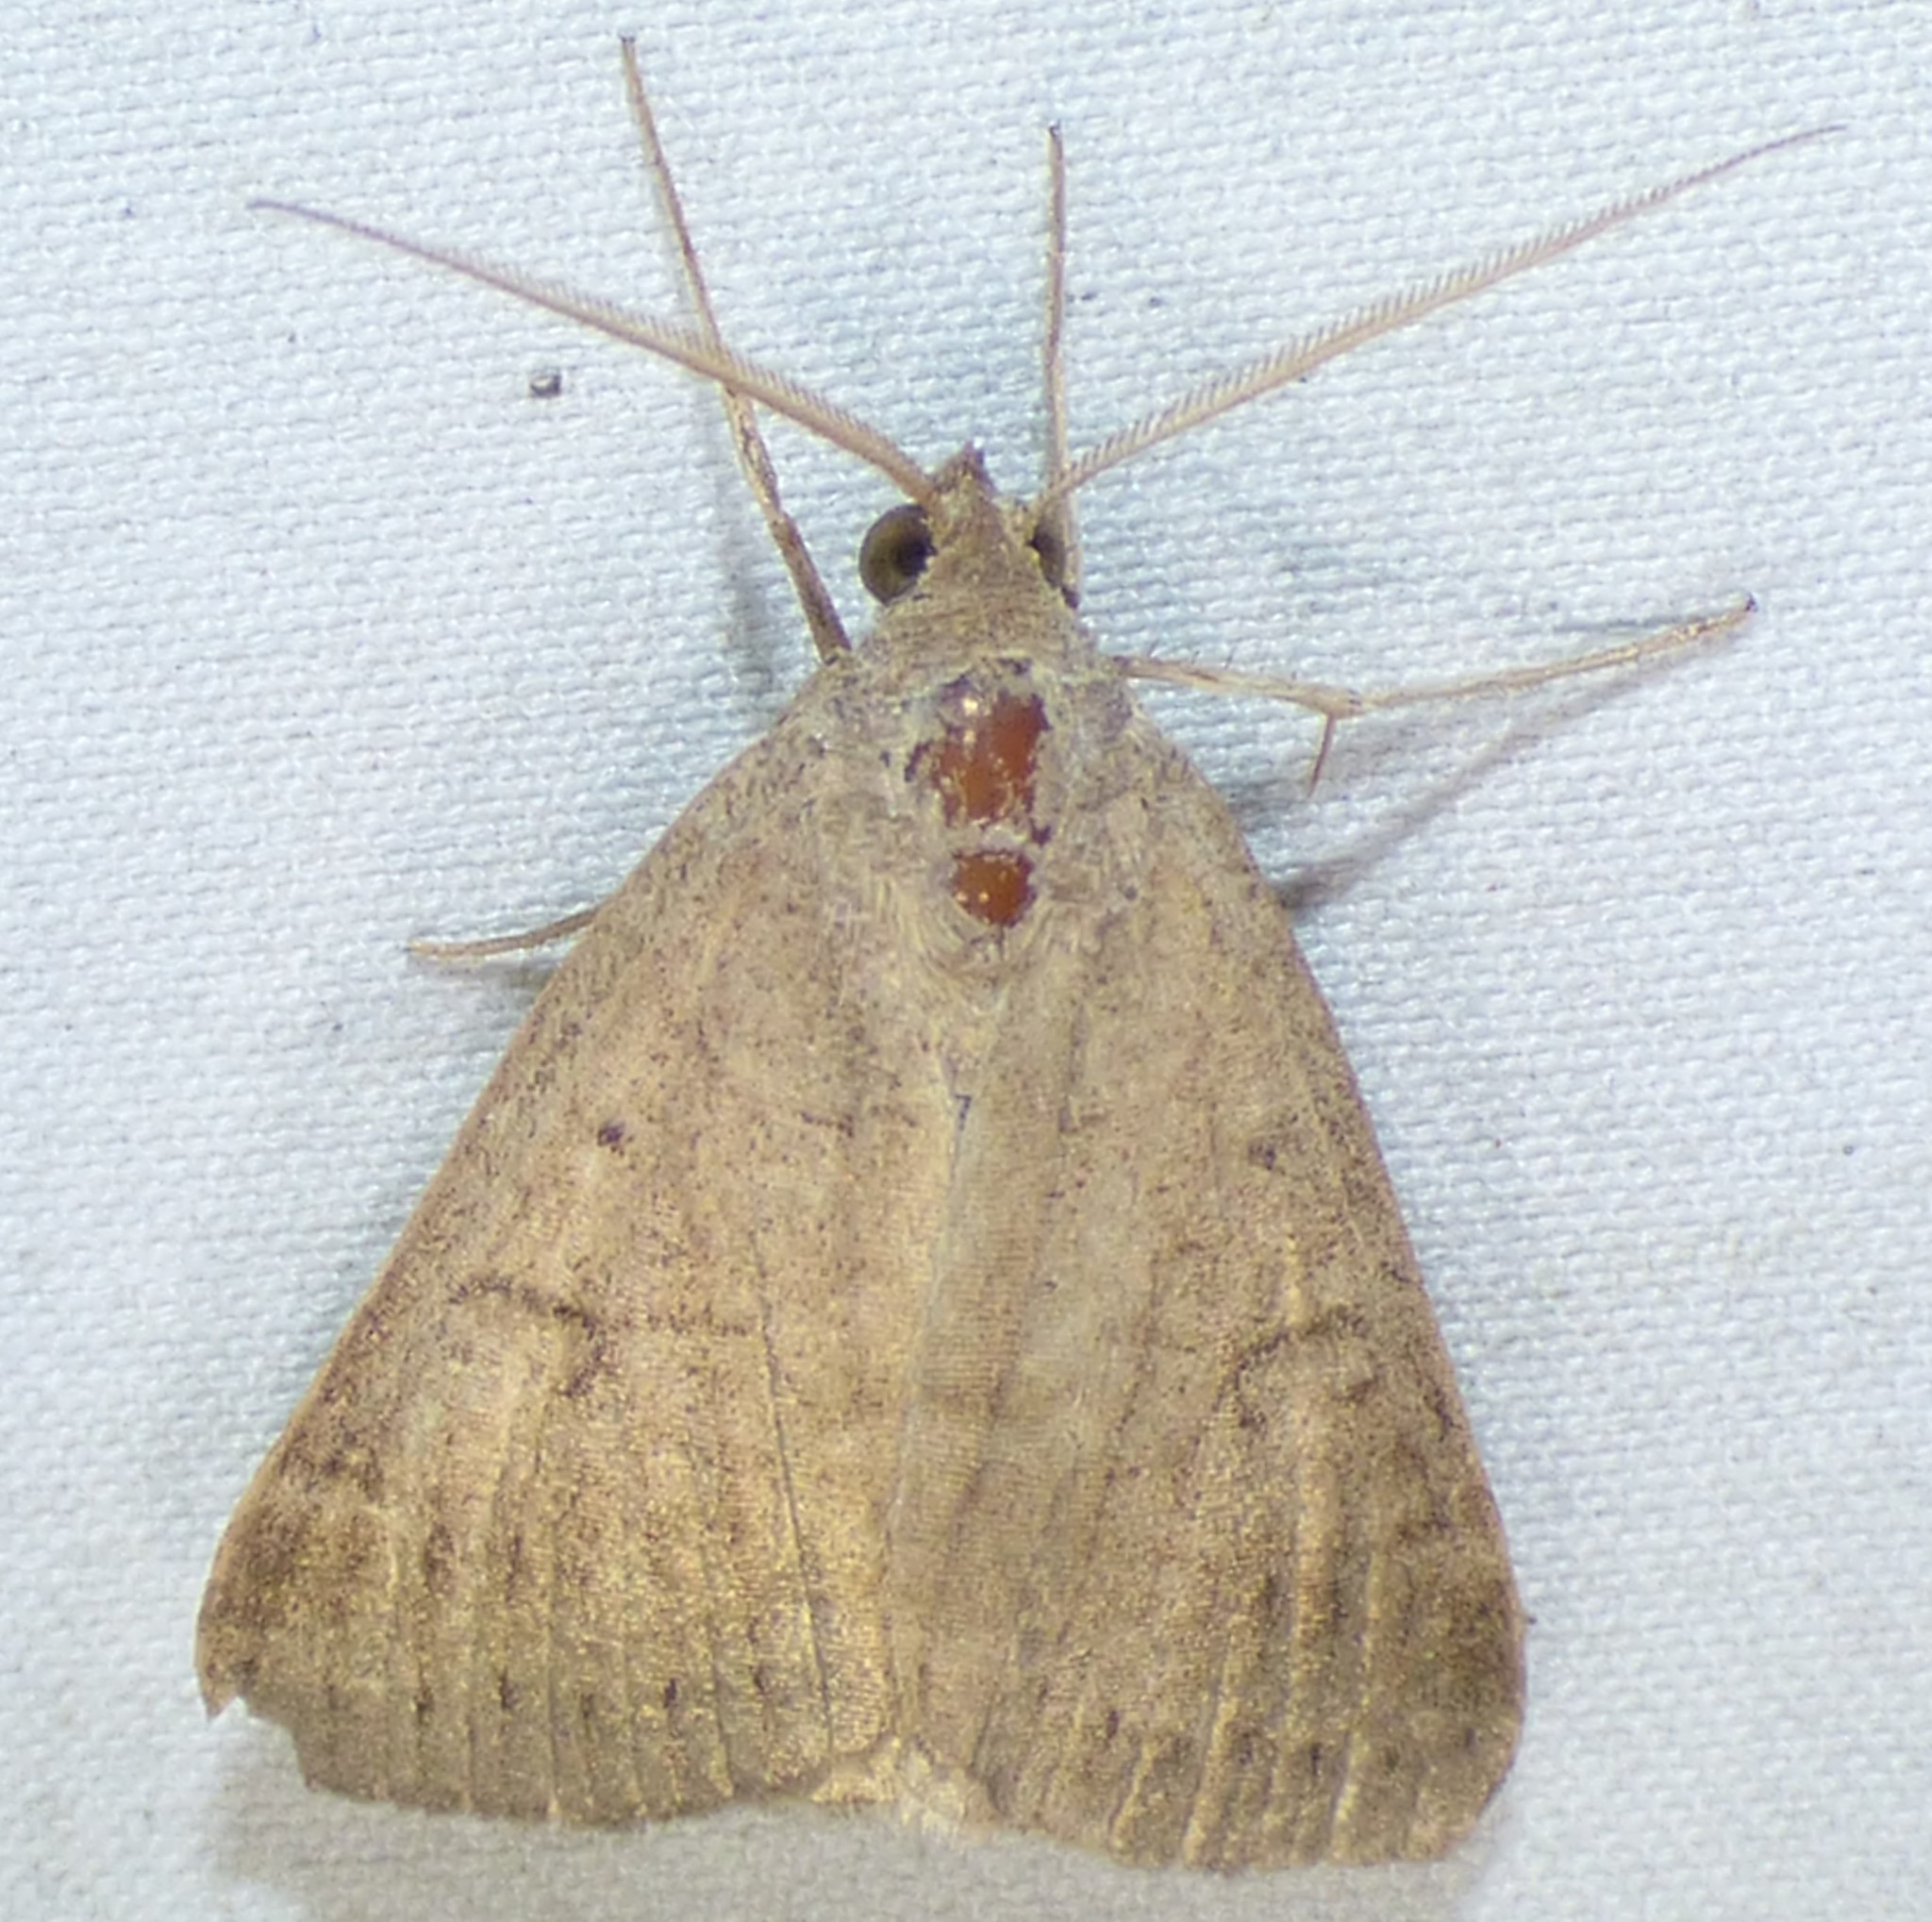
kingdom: Animalia
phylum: Arthropoda
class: Insecta
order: Lepidoptera
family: Erebidae
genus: Caenurgia
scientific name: Caenurgia chloropha
